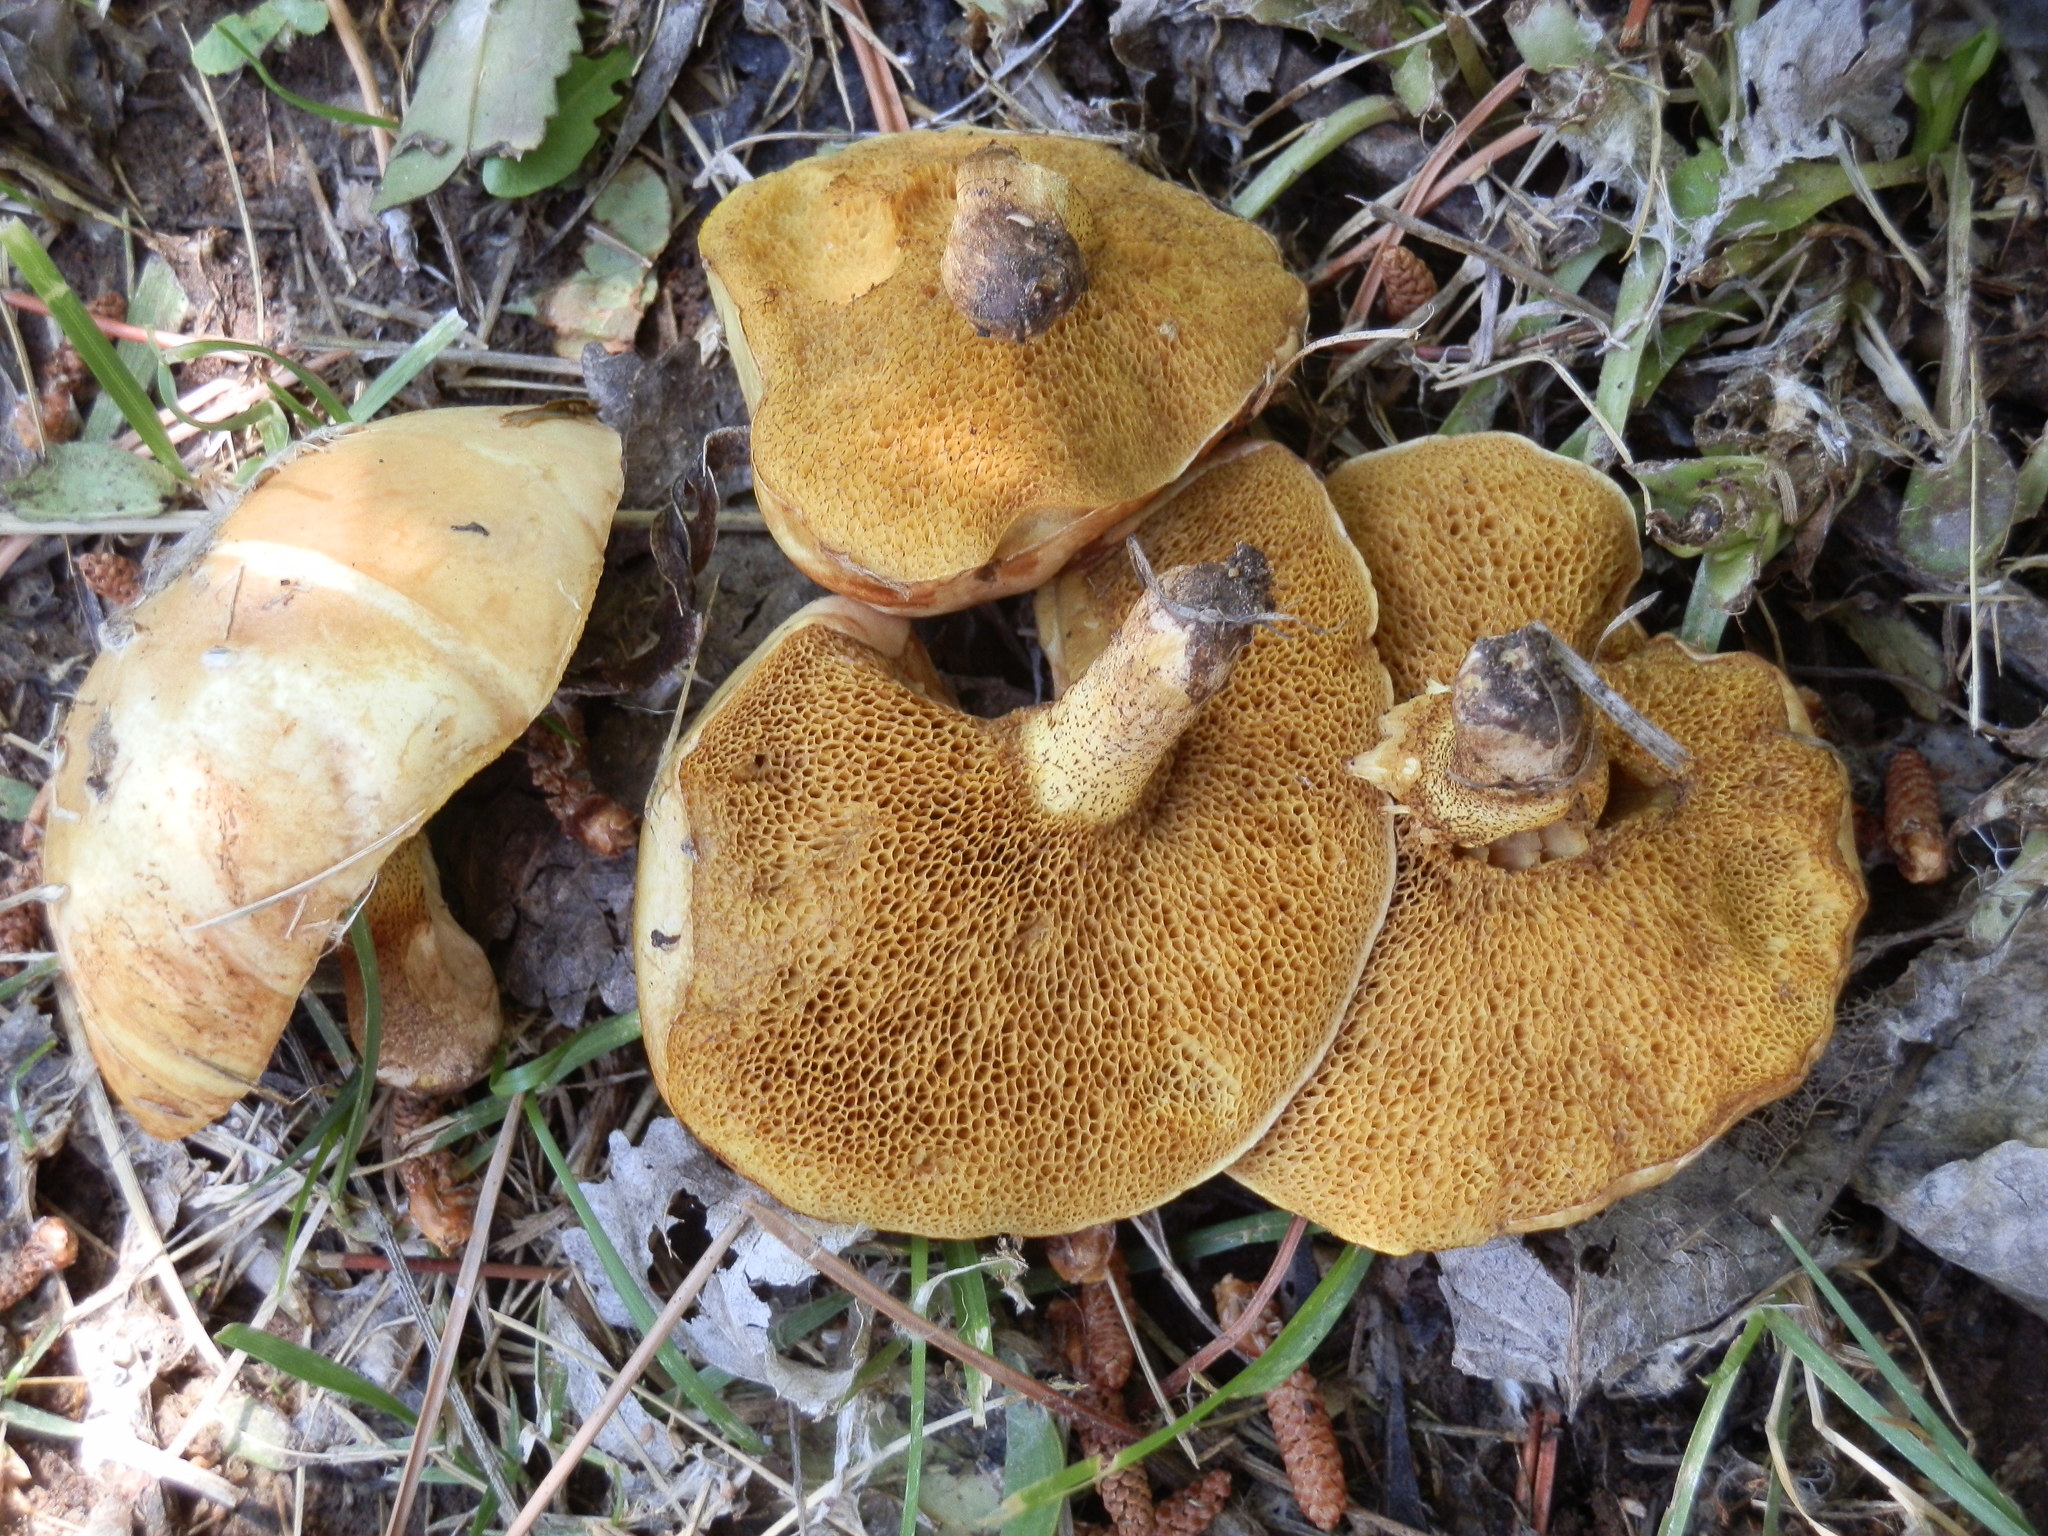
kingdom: Fungi
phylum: Basidiomycota
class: Agaricomycetes
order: Boletales
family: Suillaceae
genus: Suillus
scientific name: Suillus kaibabensis
